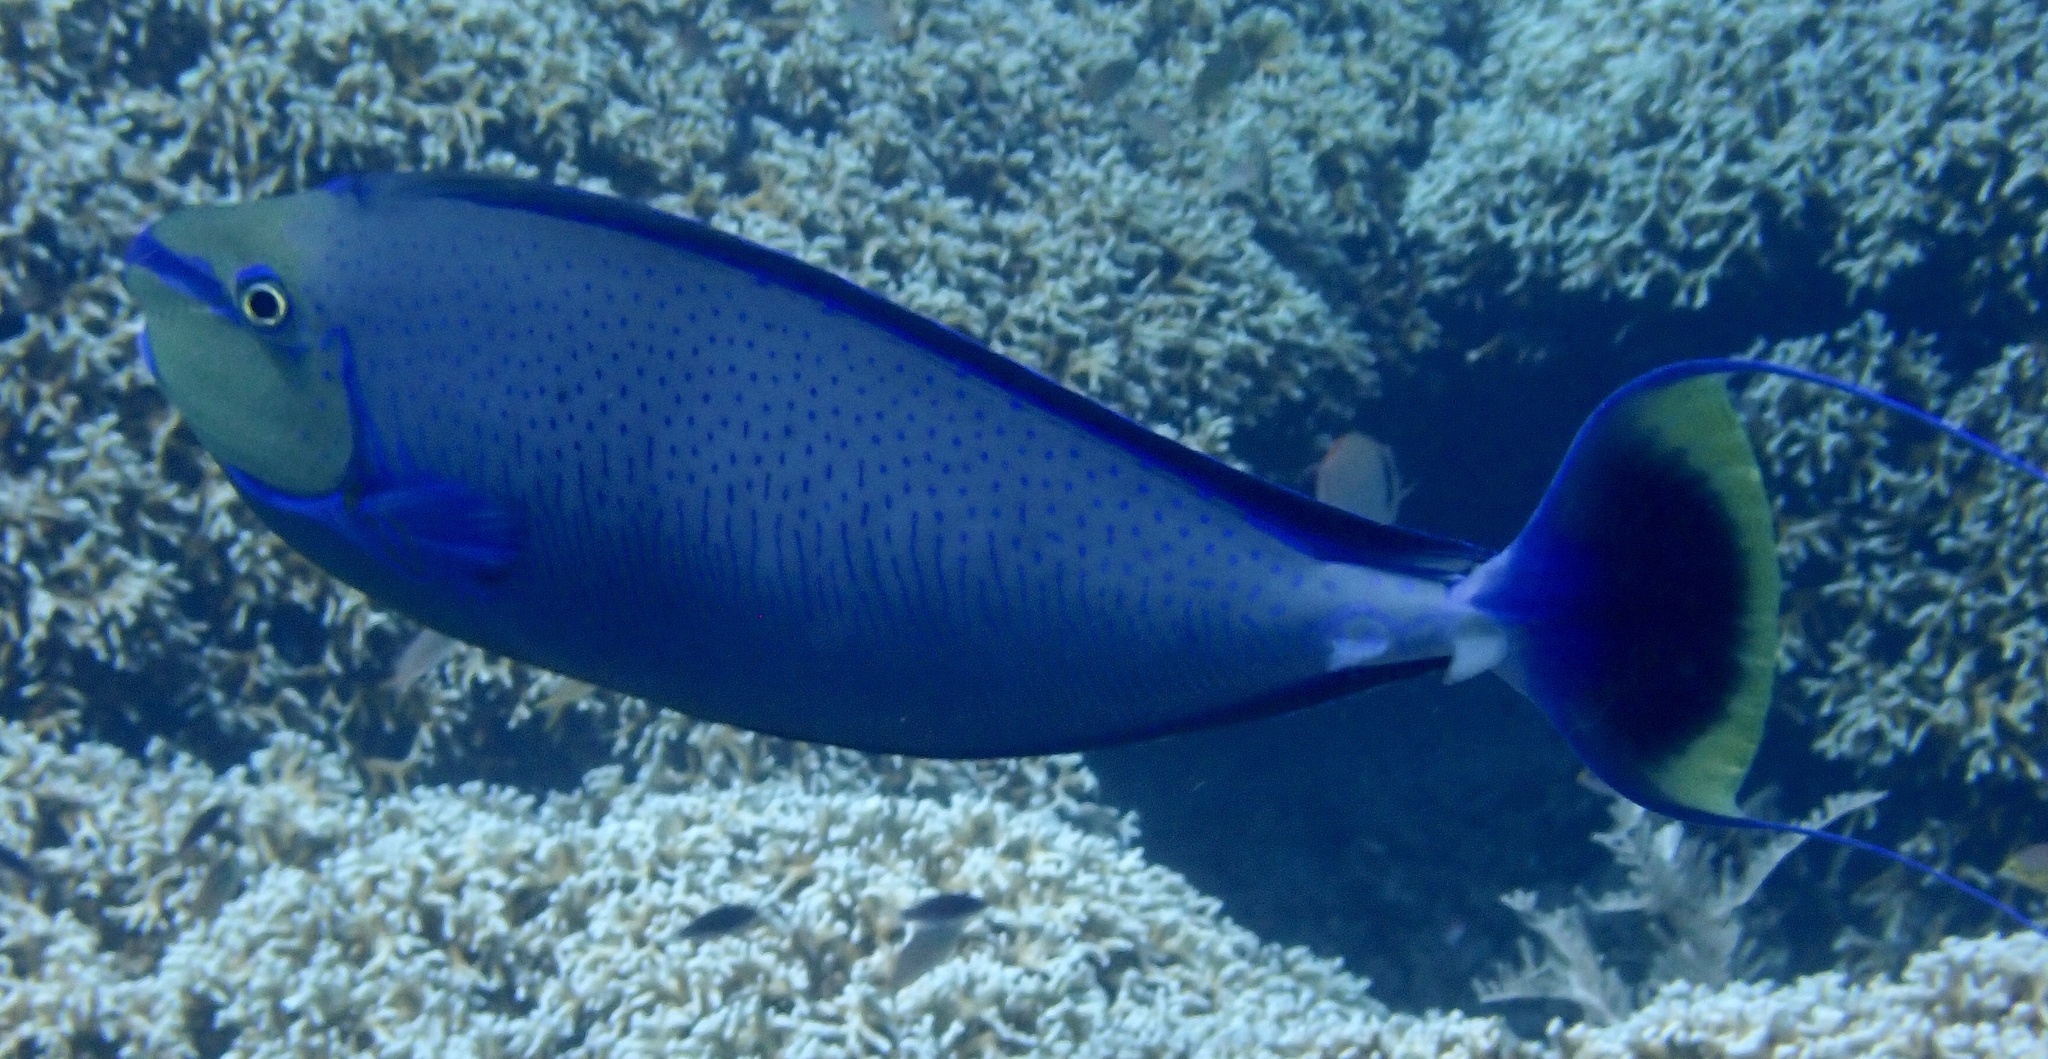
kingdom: Animalia
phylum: Chordata
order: Perciformes
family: Acanthuridae
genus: Naso
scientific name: Naso vlamingii
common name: Big-nose unicorn
